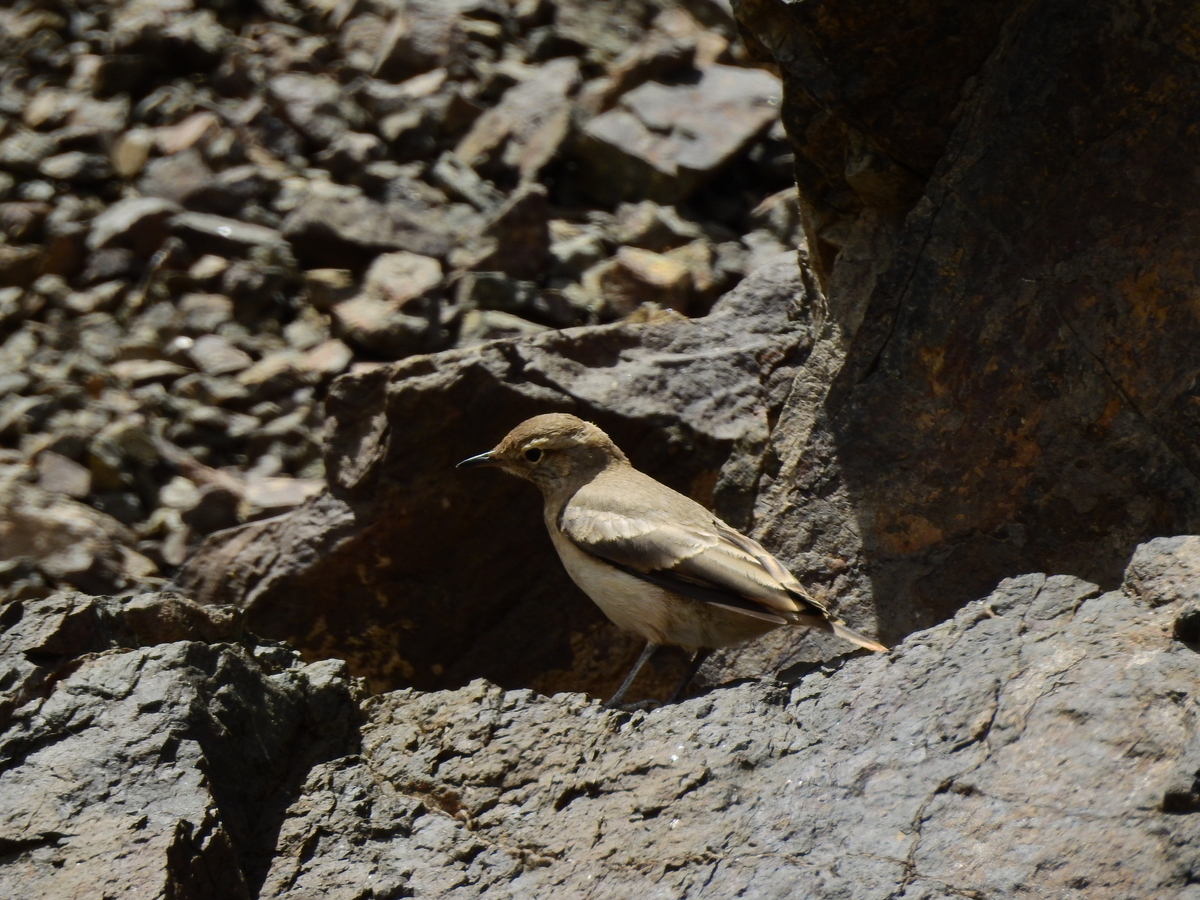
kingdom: Animalia
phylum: Chordata
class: Aves
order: Passeriformes
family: Furnariidae
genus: Geositta
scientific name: Geositta rufipennis
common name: Rufous-banded miner
